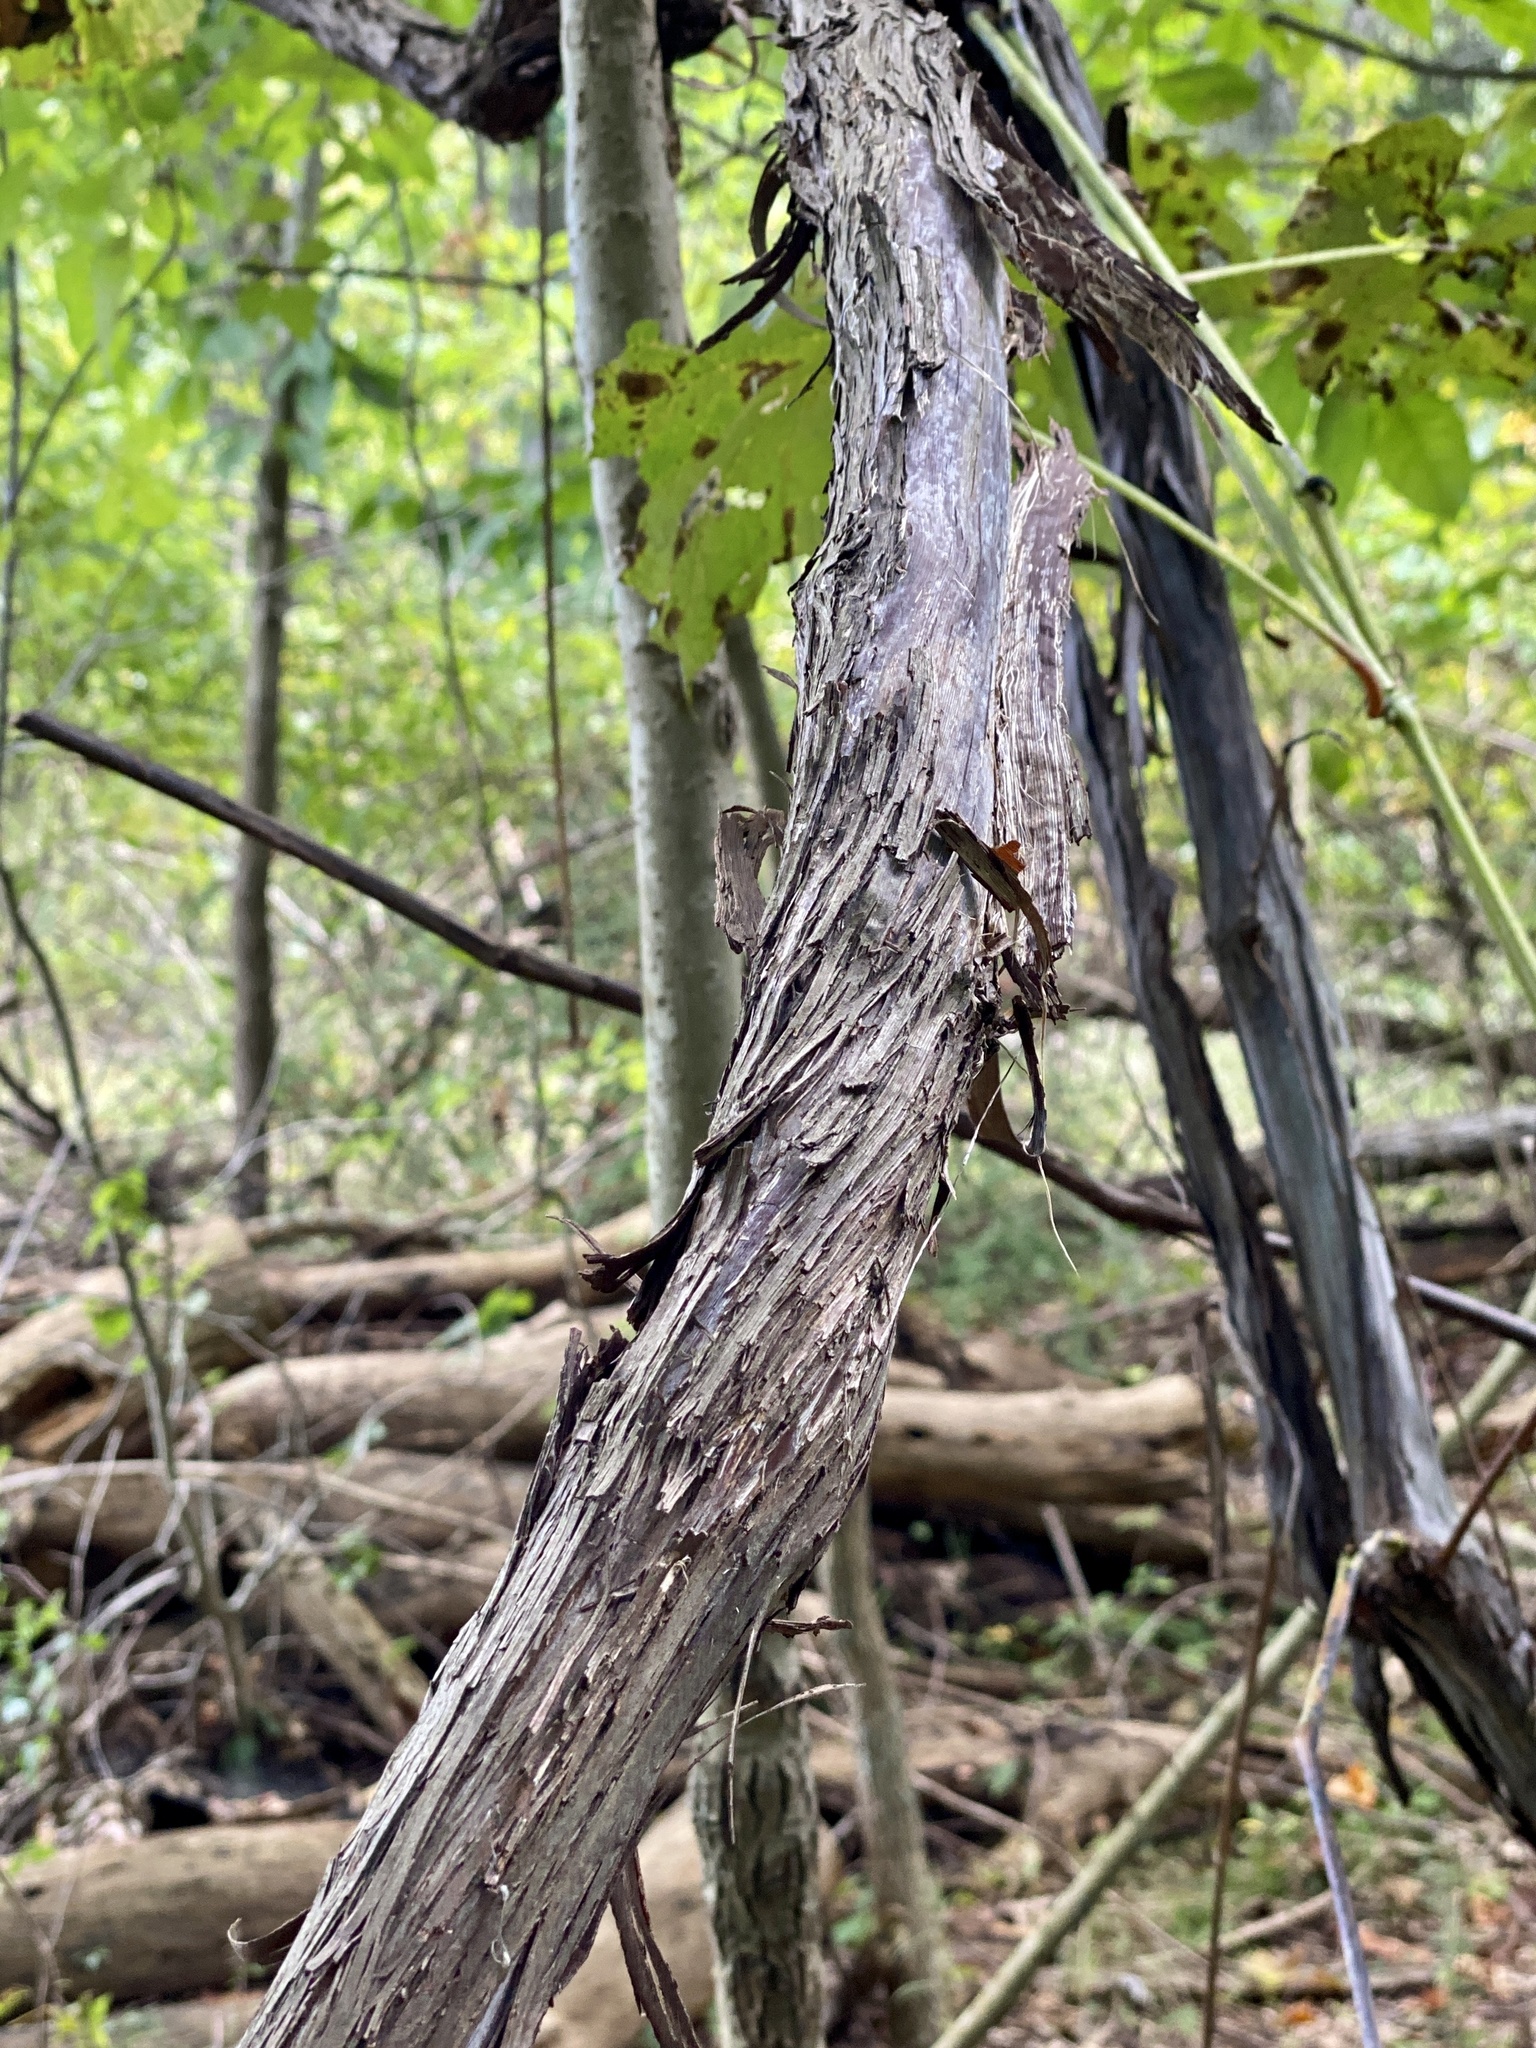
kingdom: Plantae
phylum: Tracheophyta
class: Magnoliopsida
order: Vitales
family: Vitaceae
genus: Vitis
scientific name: Vitis
